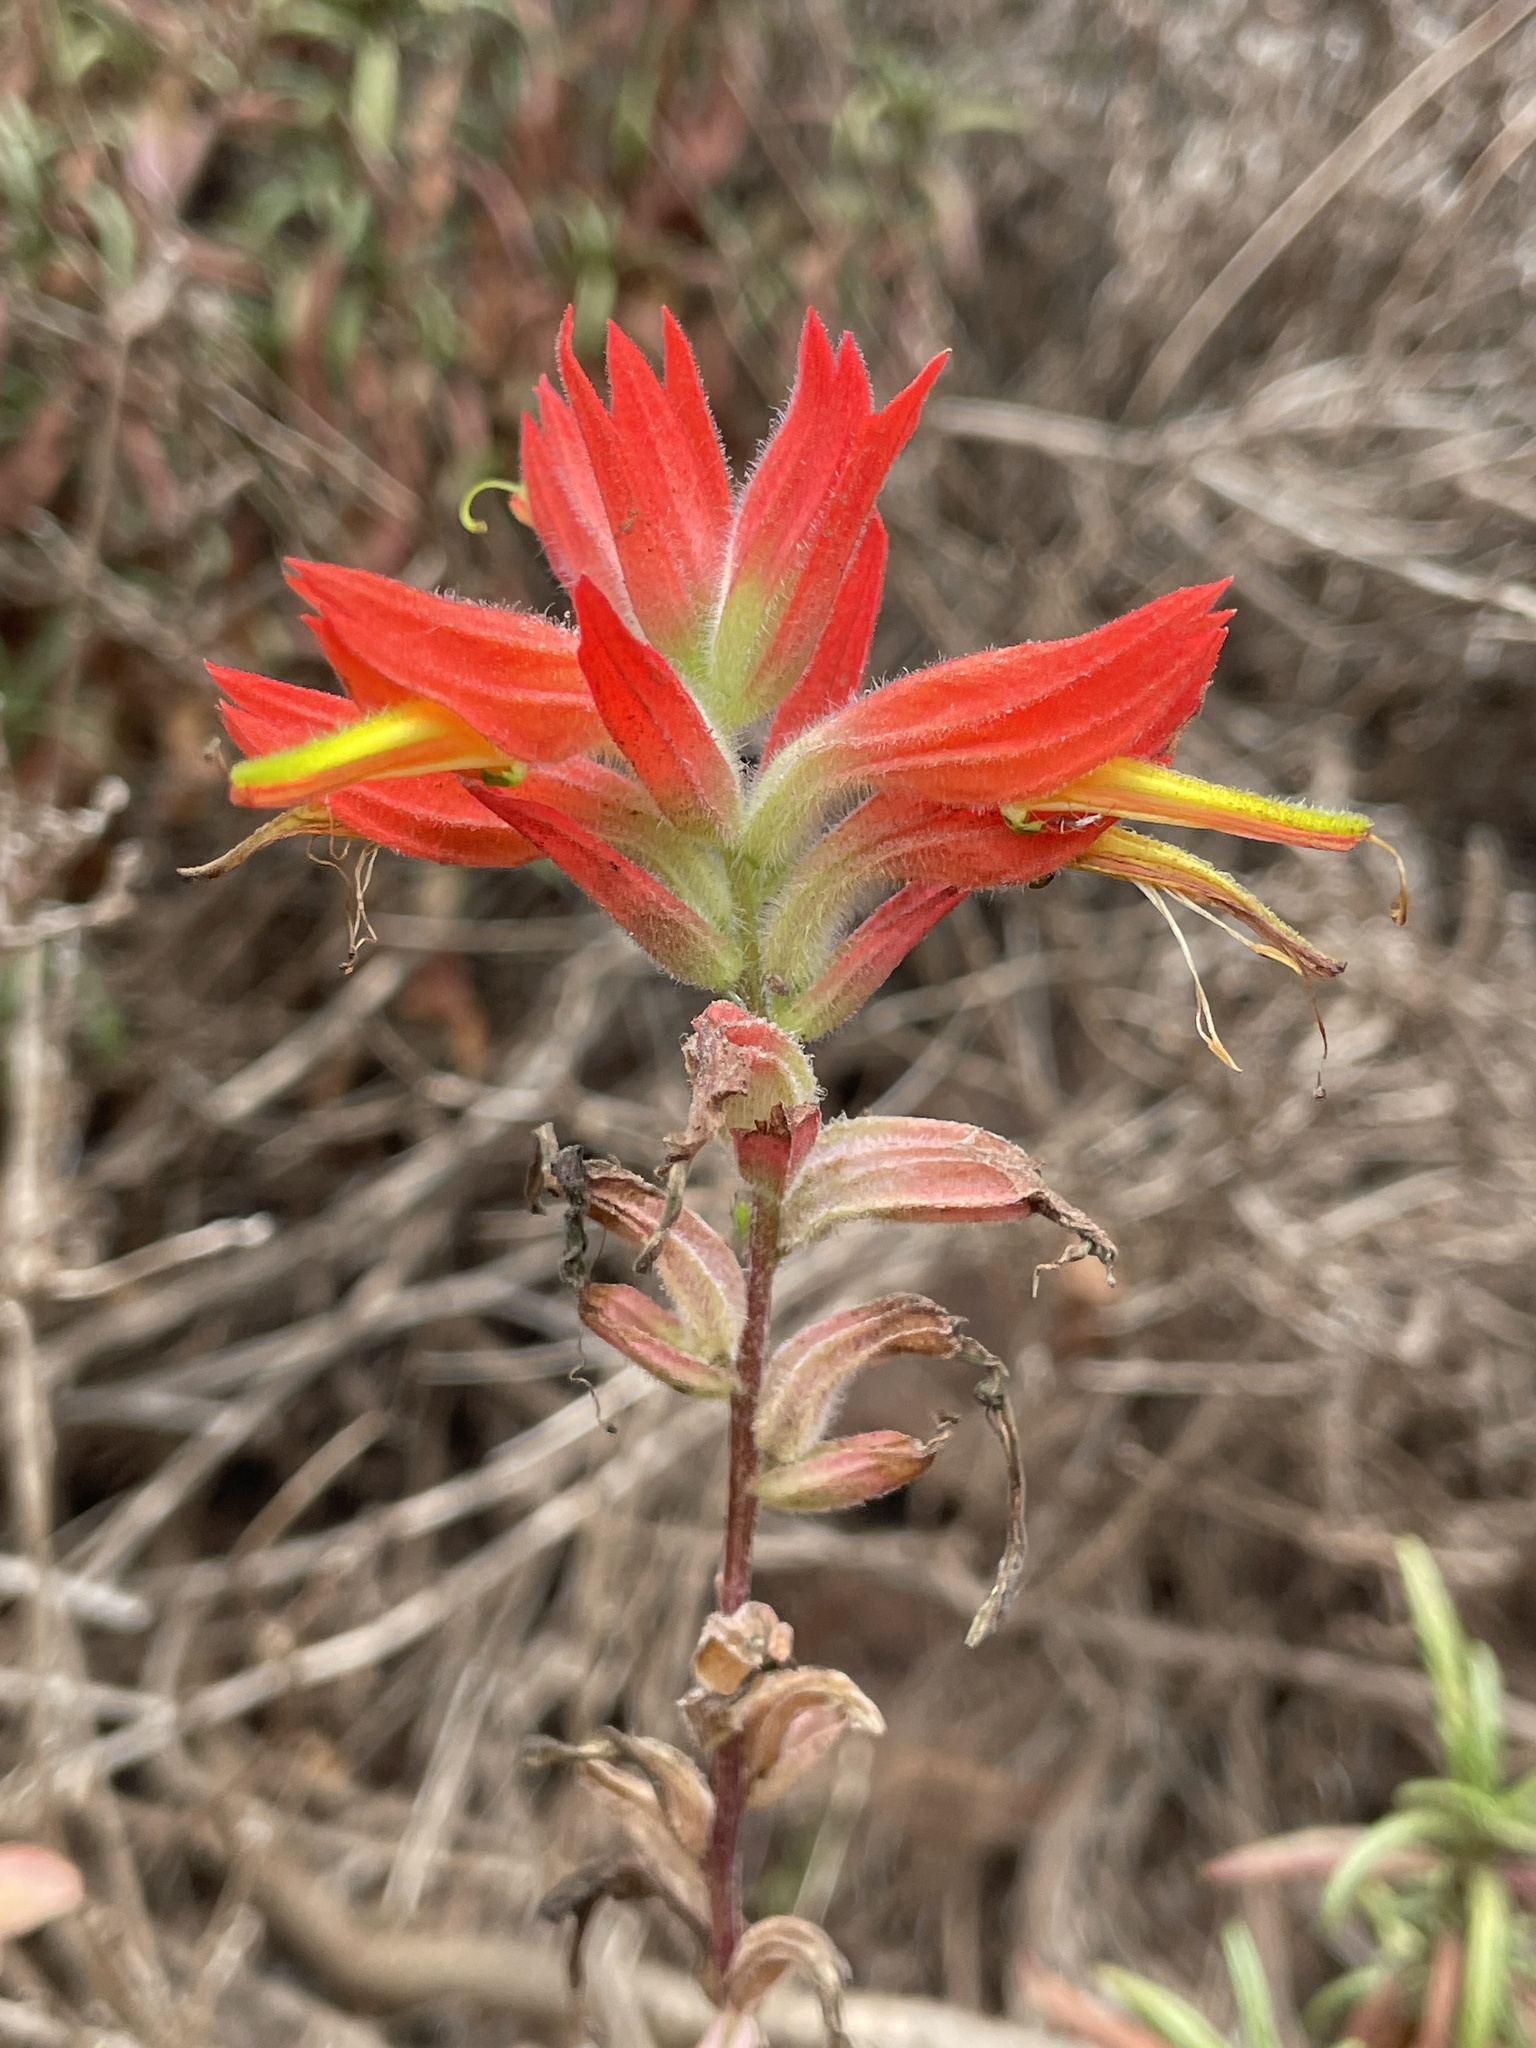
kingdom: Plantae
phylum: Tracheophyta
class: Magnoliopsida
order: Lamiales
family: Orobanchaceae
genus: Castilleja
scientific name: Castilleja subinclusa
